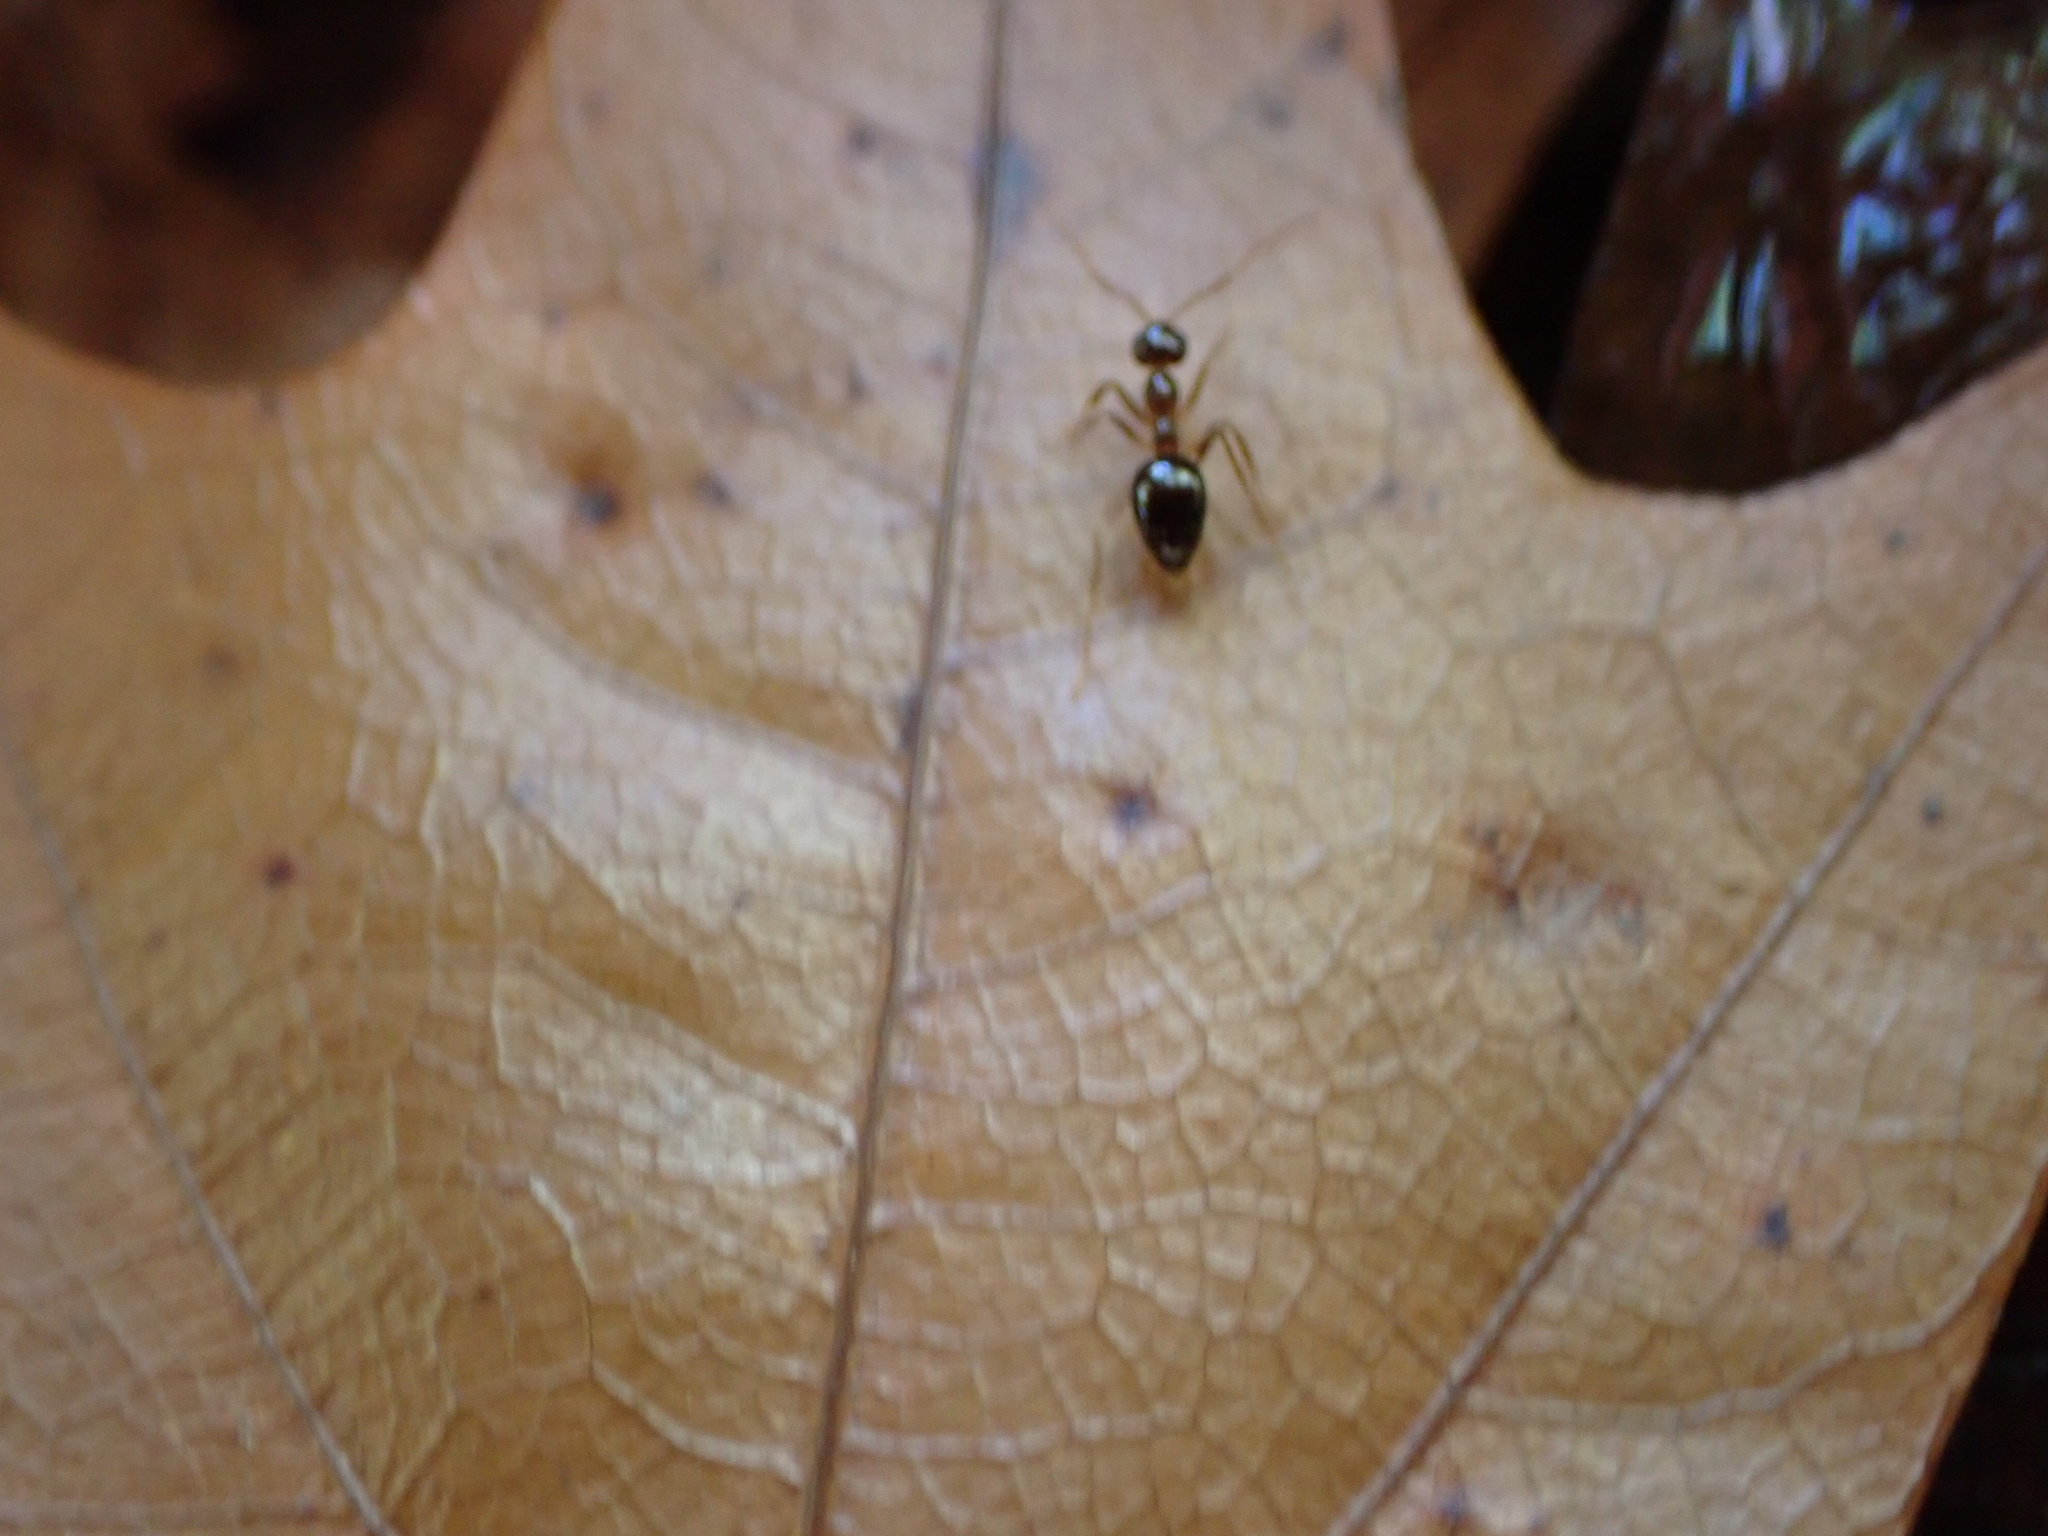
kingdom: Animalia
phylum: Arthropoda
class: Insecta
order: Hymenoptera
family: Formicidae
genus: Prenolepis
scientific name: Prenolepis imparis
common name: Small honey ant
